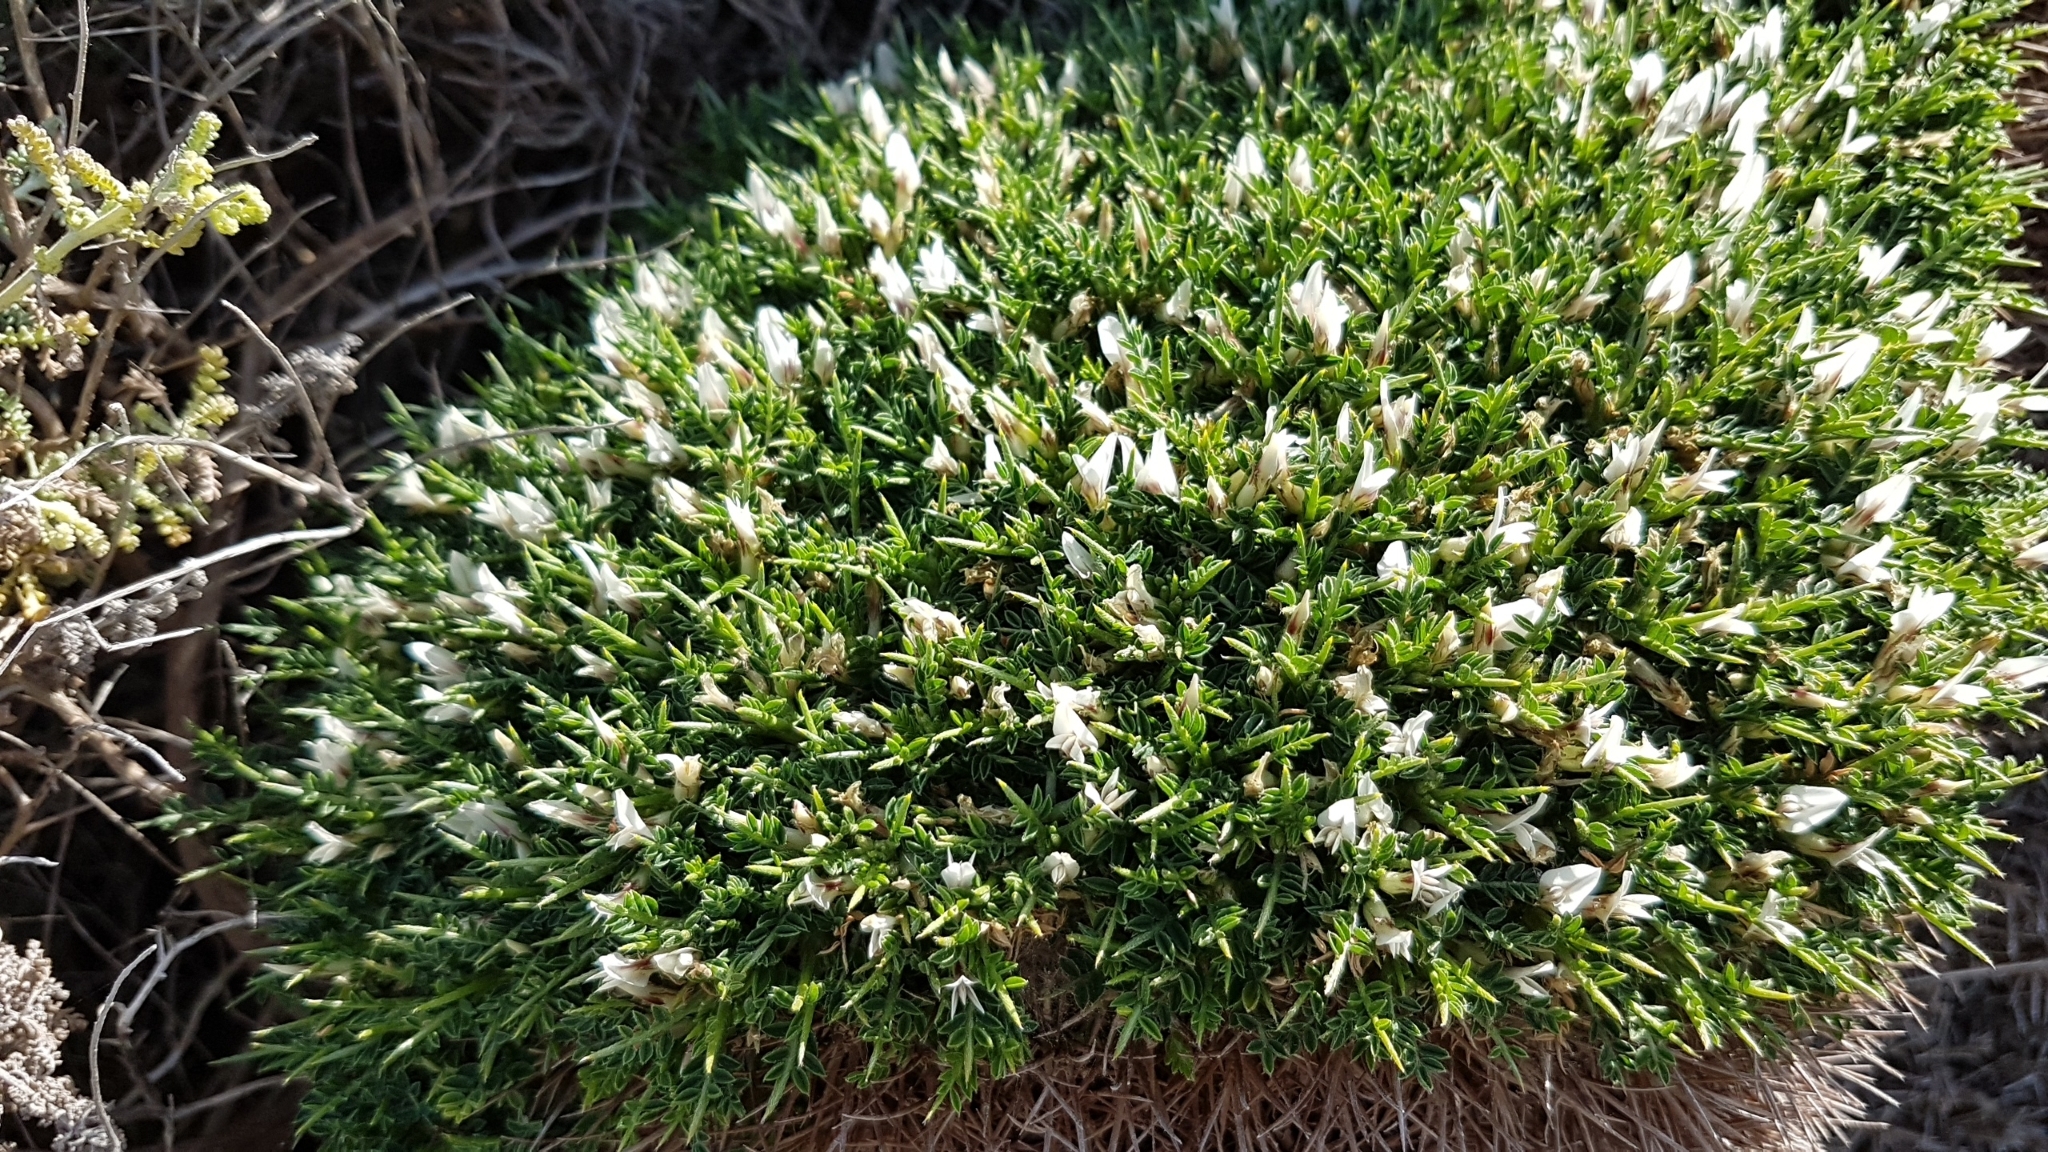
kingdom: Plantae
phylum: Tracheophyta
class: Magnoliopsida
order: Fabales
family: Fabaceae
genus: Astragalus
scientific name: Astragalus balearicus
